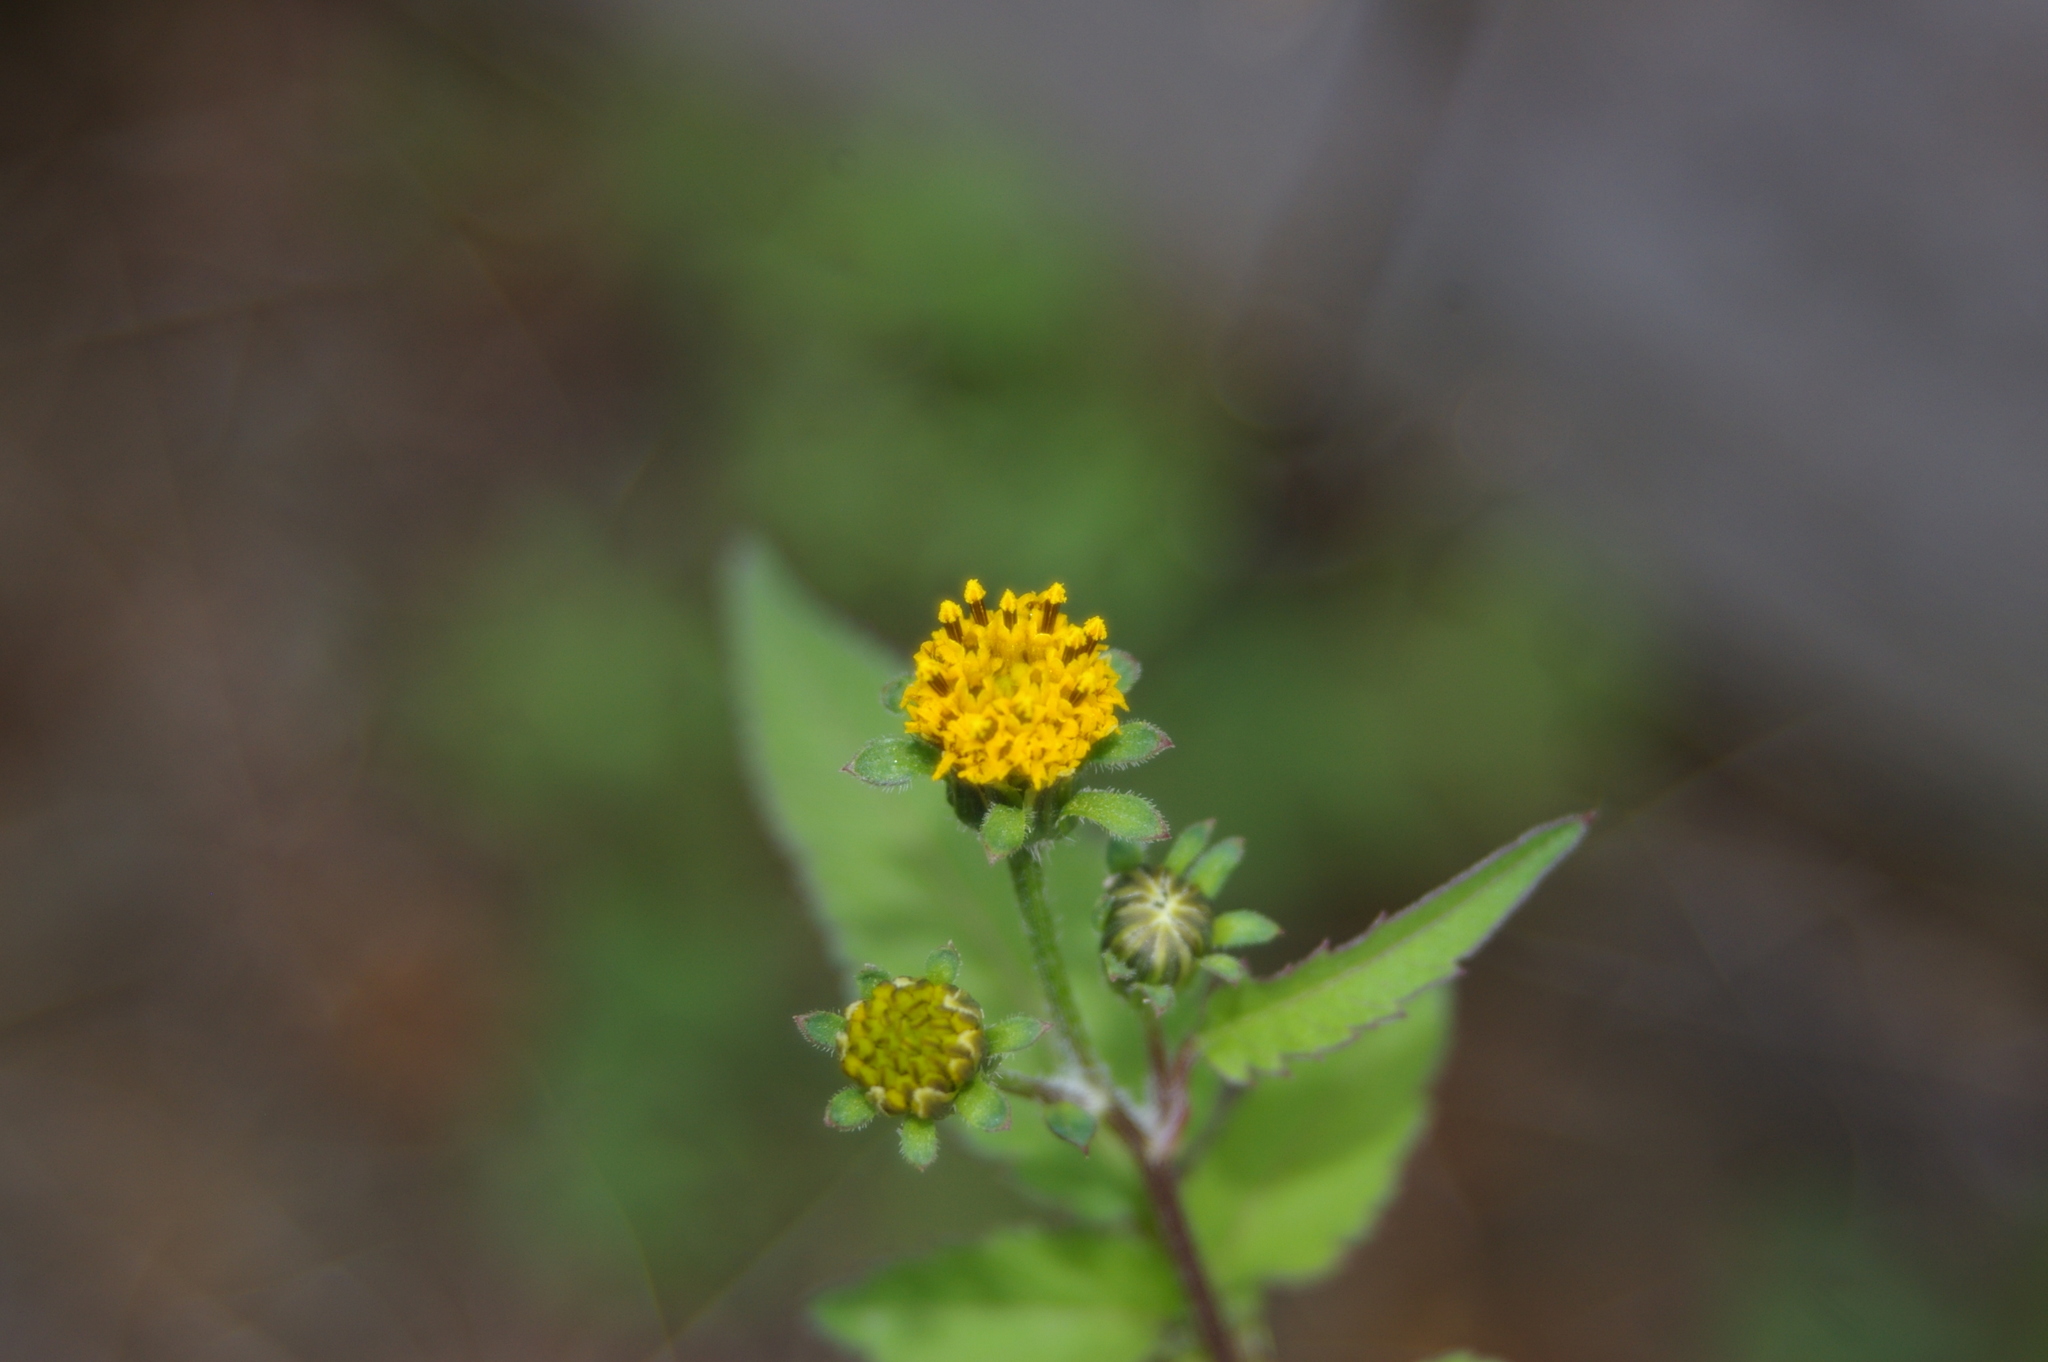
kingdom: Plantae
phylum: Tracheophyta
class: Magnoliopsida
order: Asterales
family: Asteraceae
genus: Bidens
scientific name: Bidens pilosa
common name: Black-jack
